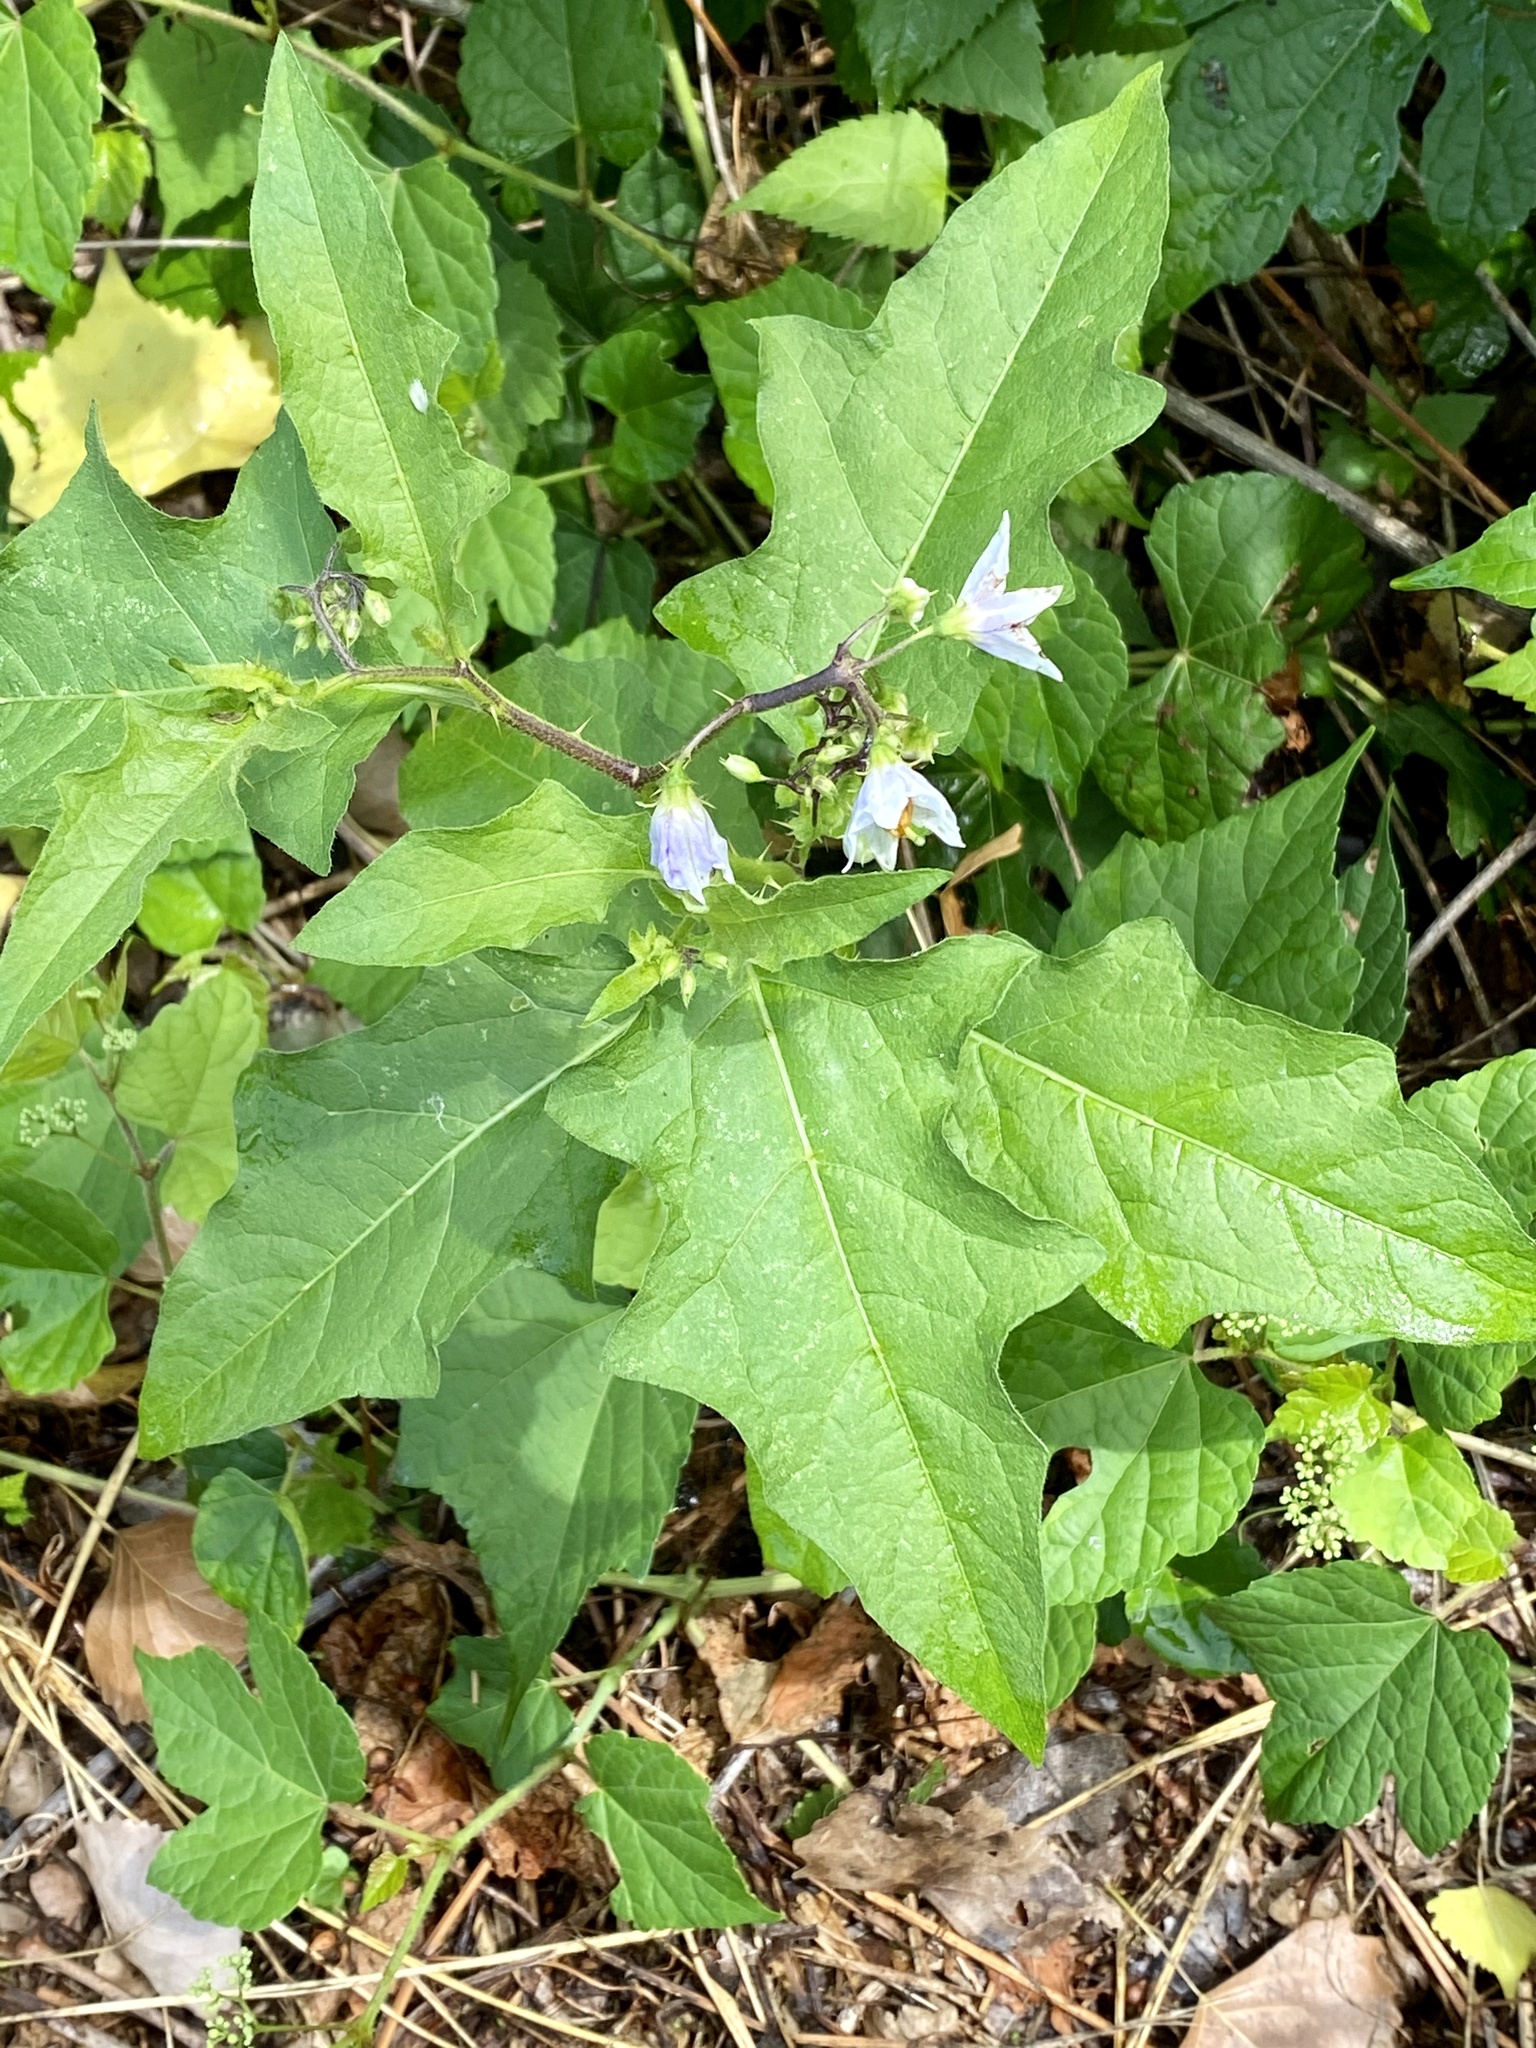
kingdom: Plantae
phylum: Tracheophyta
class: Magnoliopsida
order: Solanales
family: Solanaceae
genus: Solanum
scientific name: Solanum carolinense
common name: Horse-nettle
